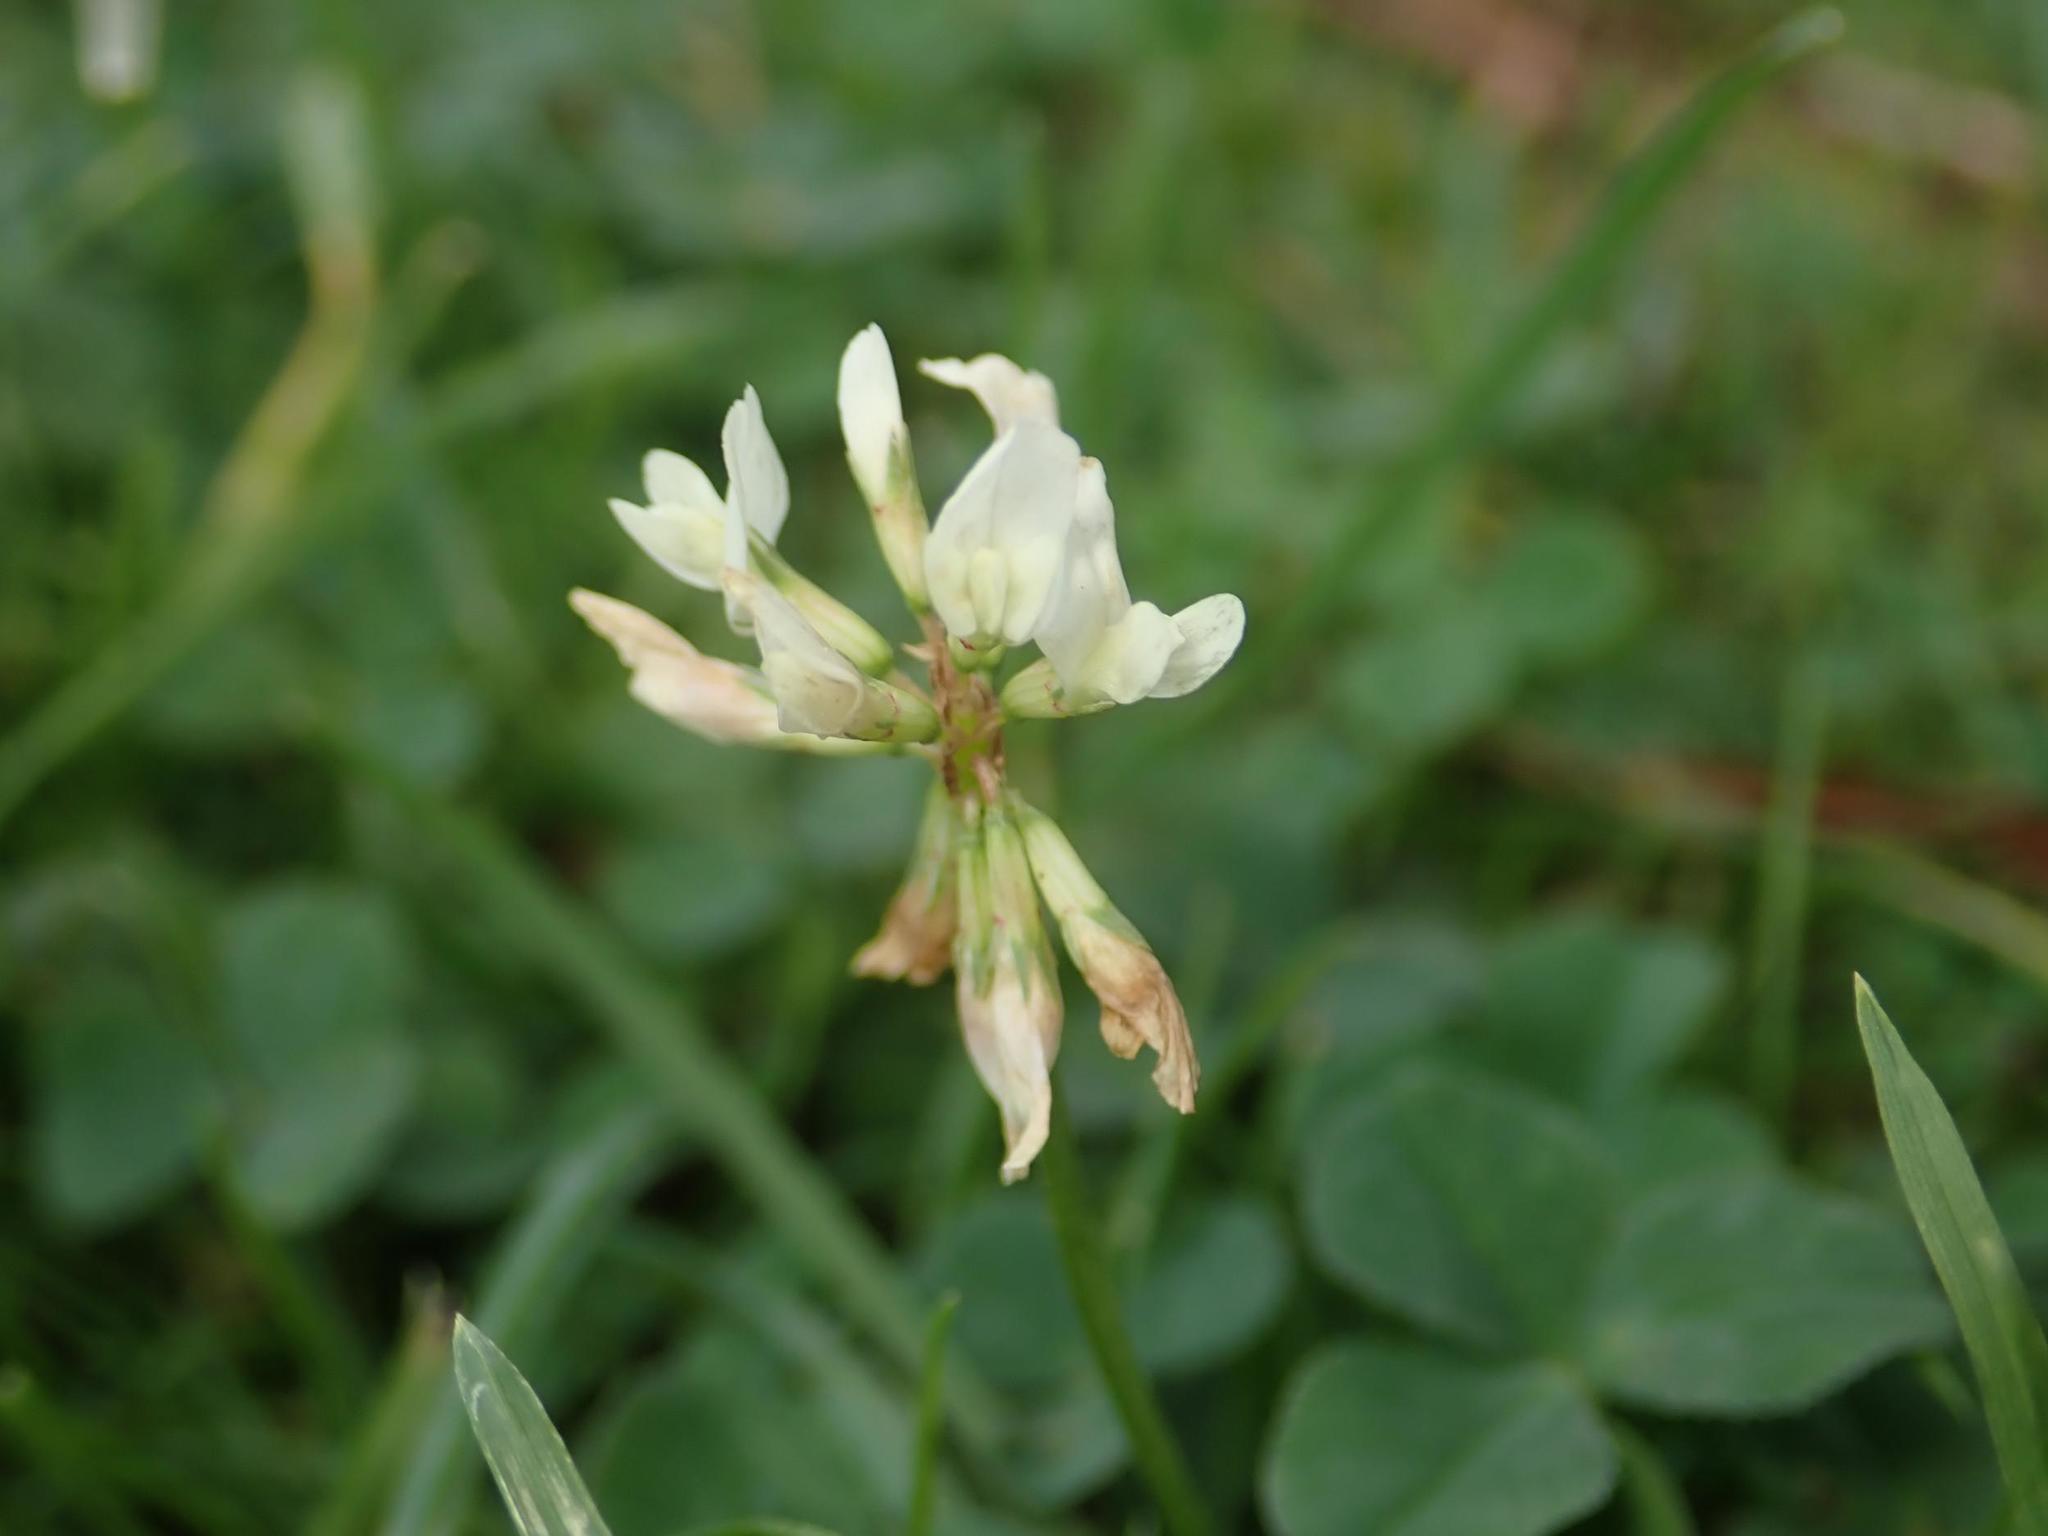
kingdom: Plantae
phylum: Tracheophyta
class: Magnoliopsida
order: Fabales
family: Fabaceae
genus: Trifolium
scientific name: Trifolium repens
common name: White clover
